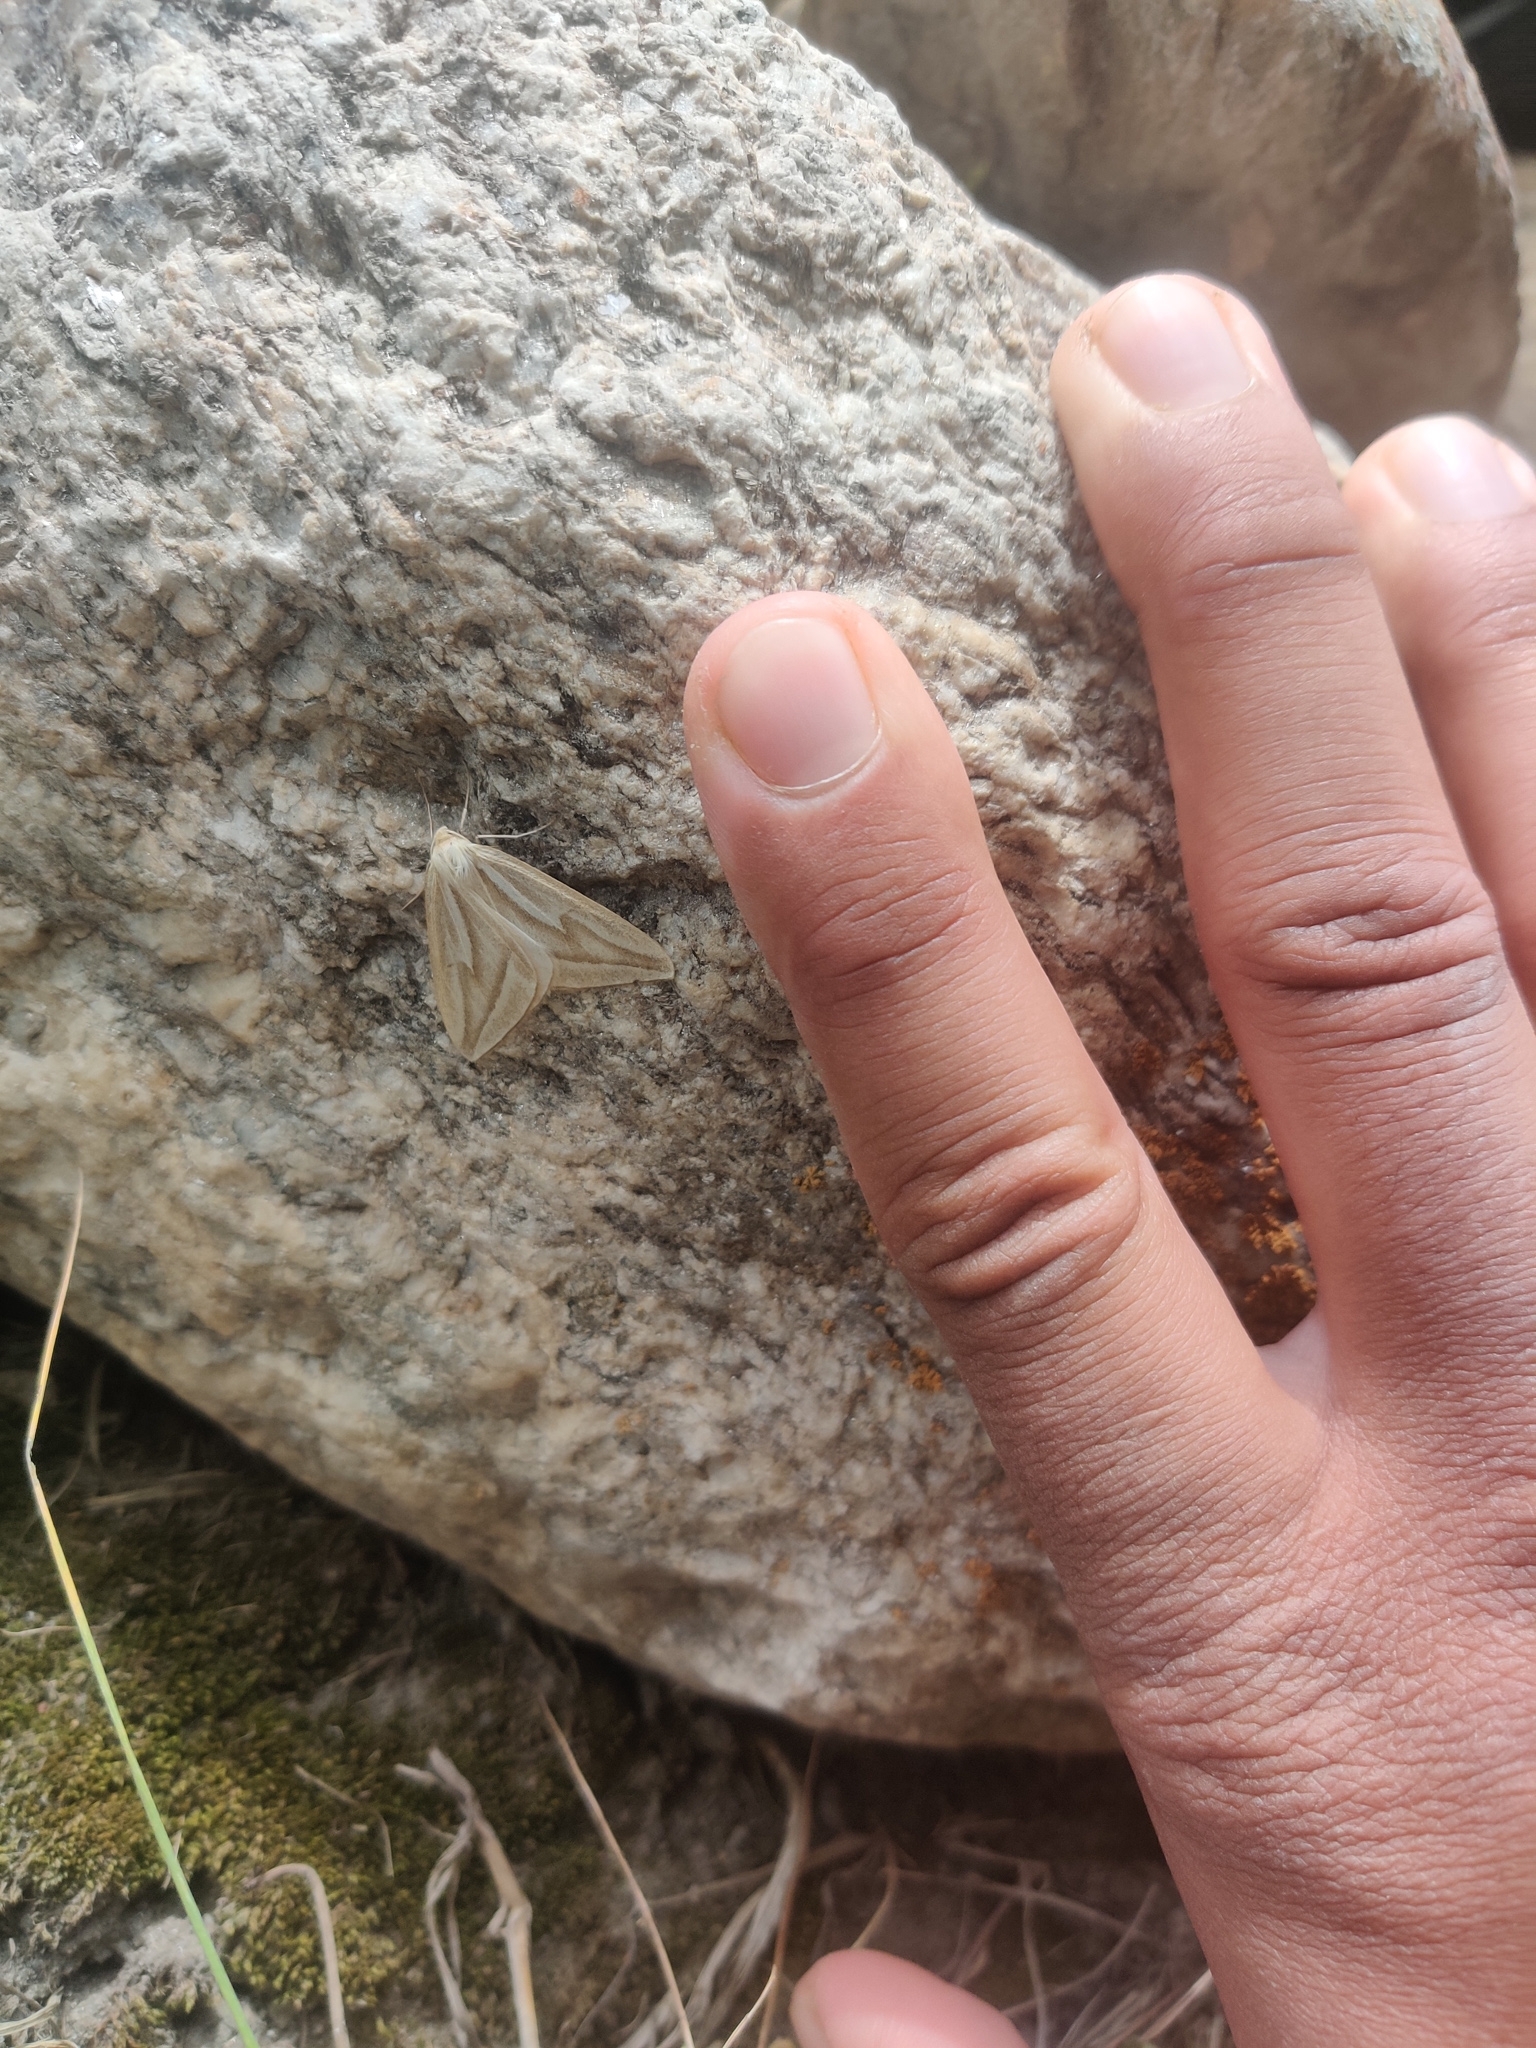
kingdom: Animalia
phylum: Arthropoda
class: Insecta
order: Lepidoptera
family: Geometridae
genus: Sirinopteryx
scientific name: Sirinopteryx duplicilinea
